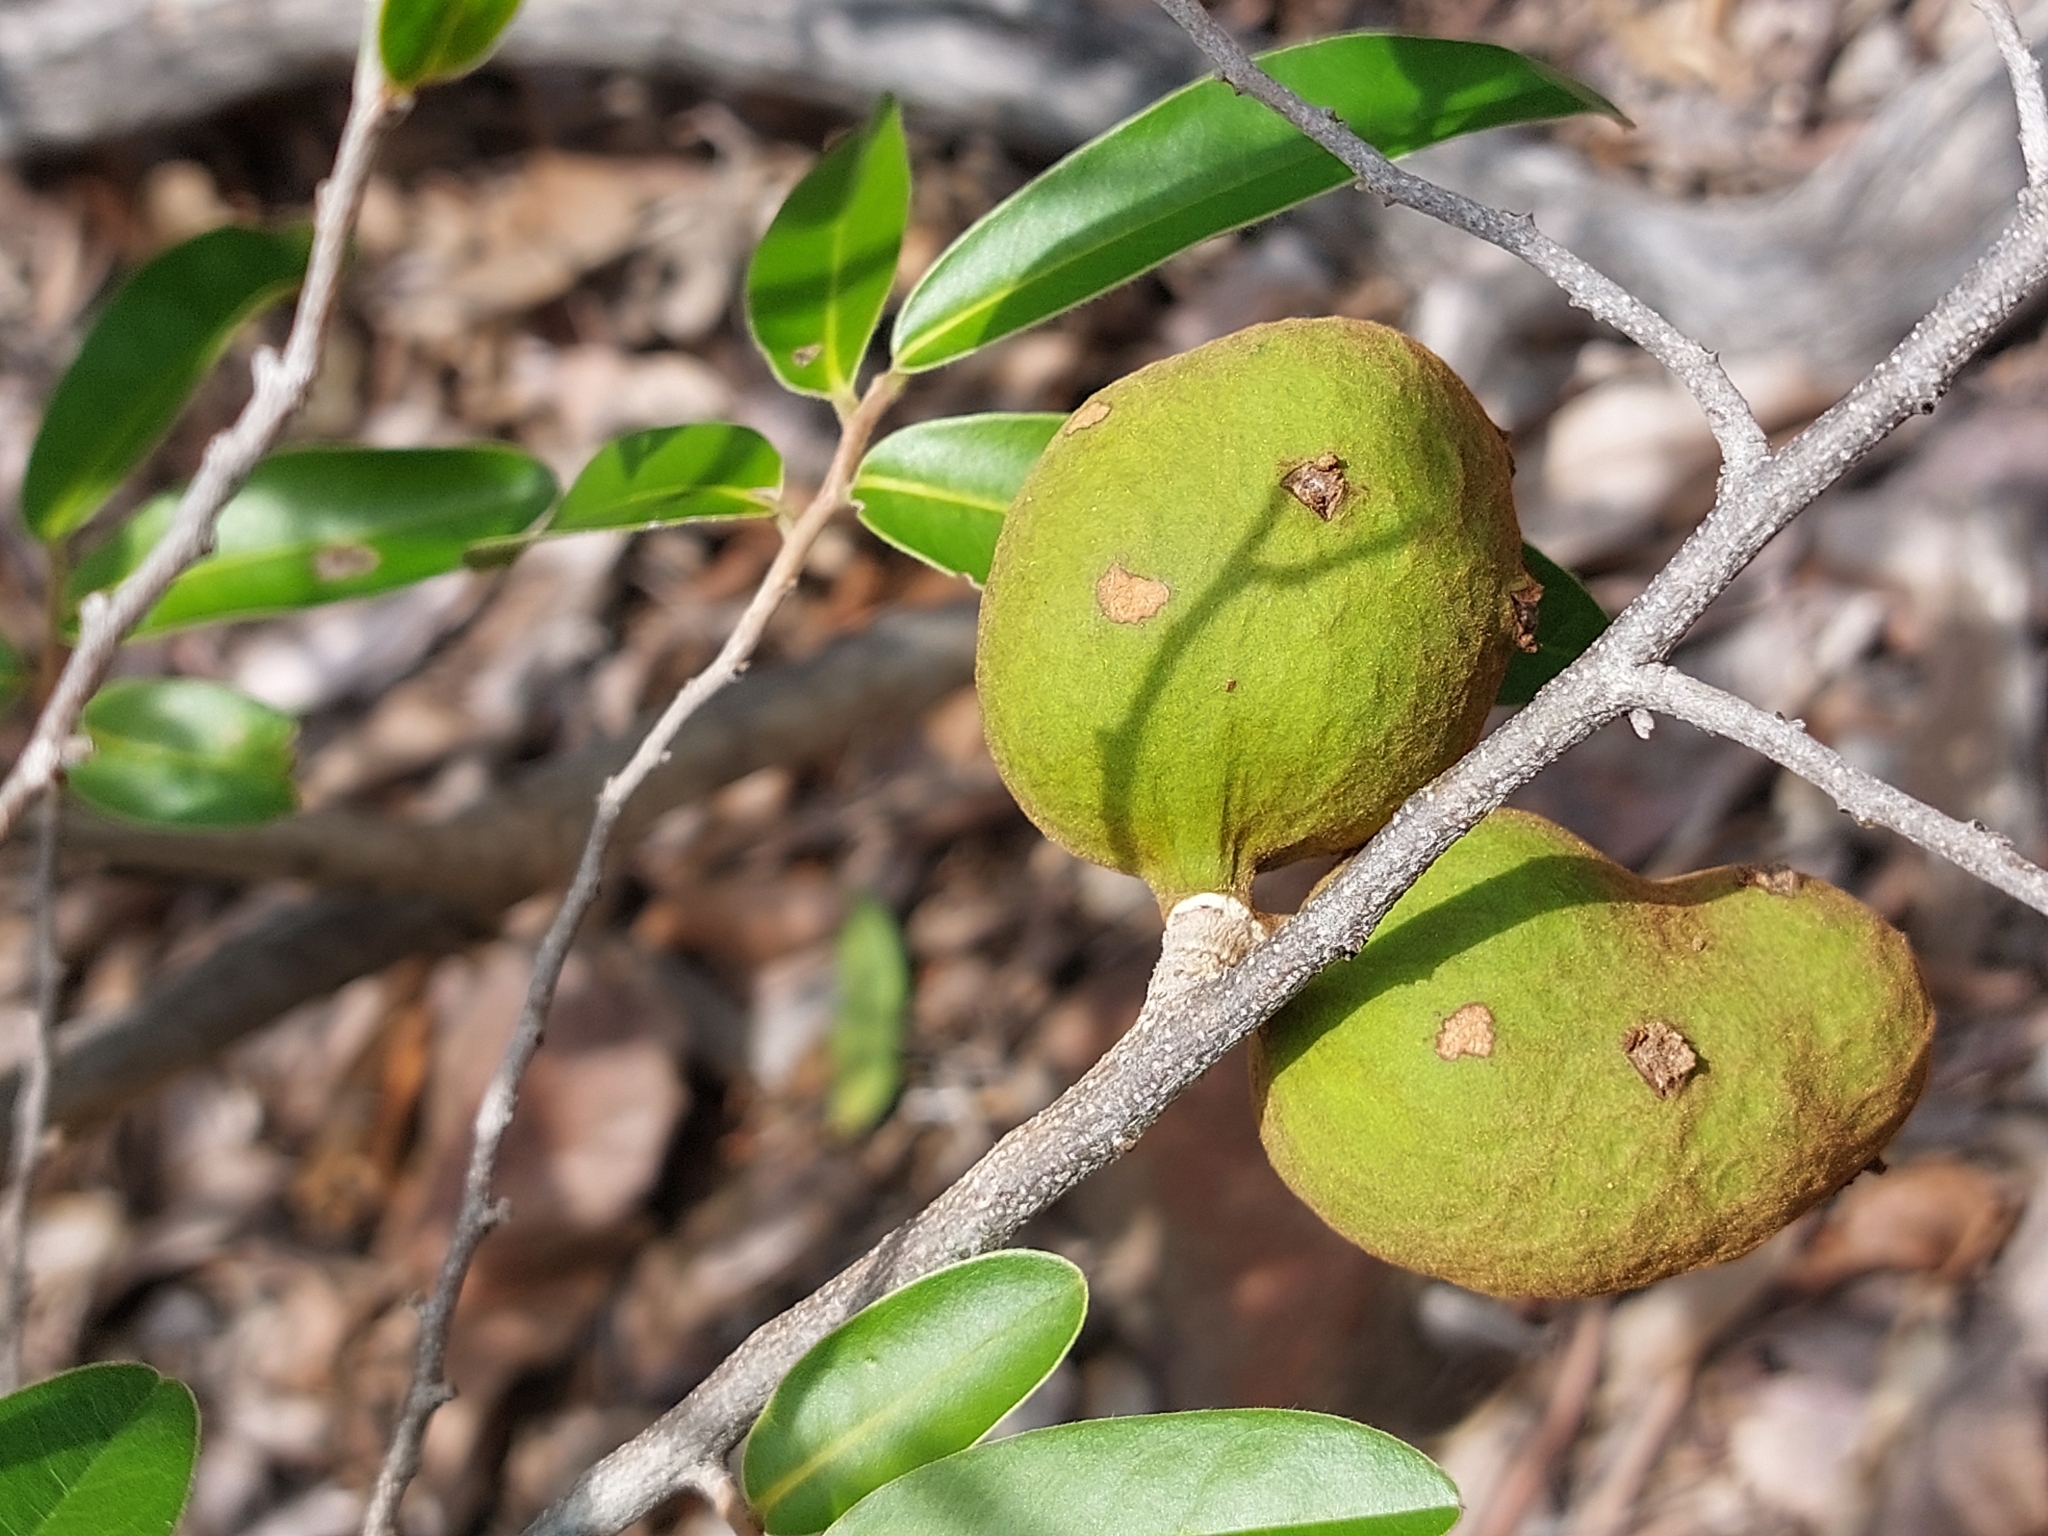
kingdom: Plantae
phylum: Tracheophyta
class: Magnoliopsida
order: Magnoliales
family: Annonaceae
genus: Hexalobus
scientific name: Hexalobus monopetalus
